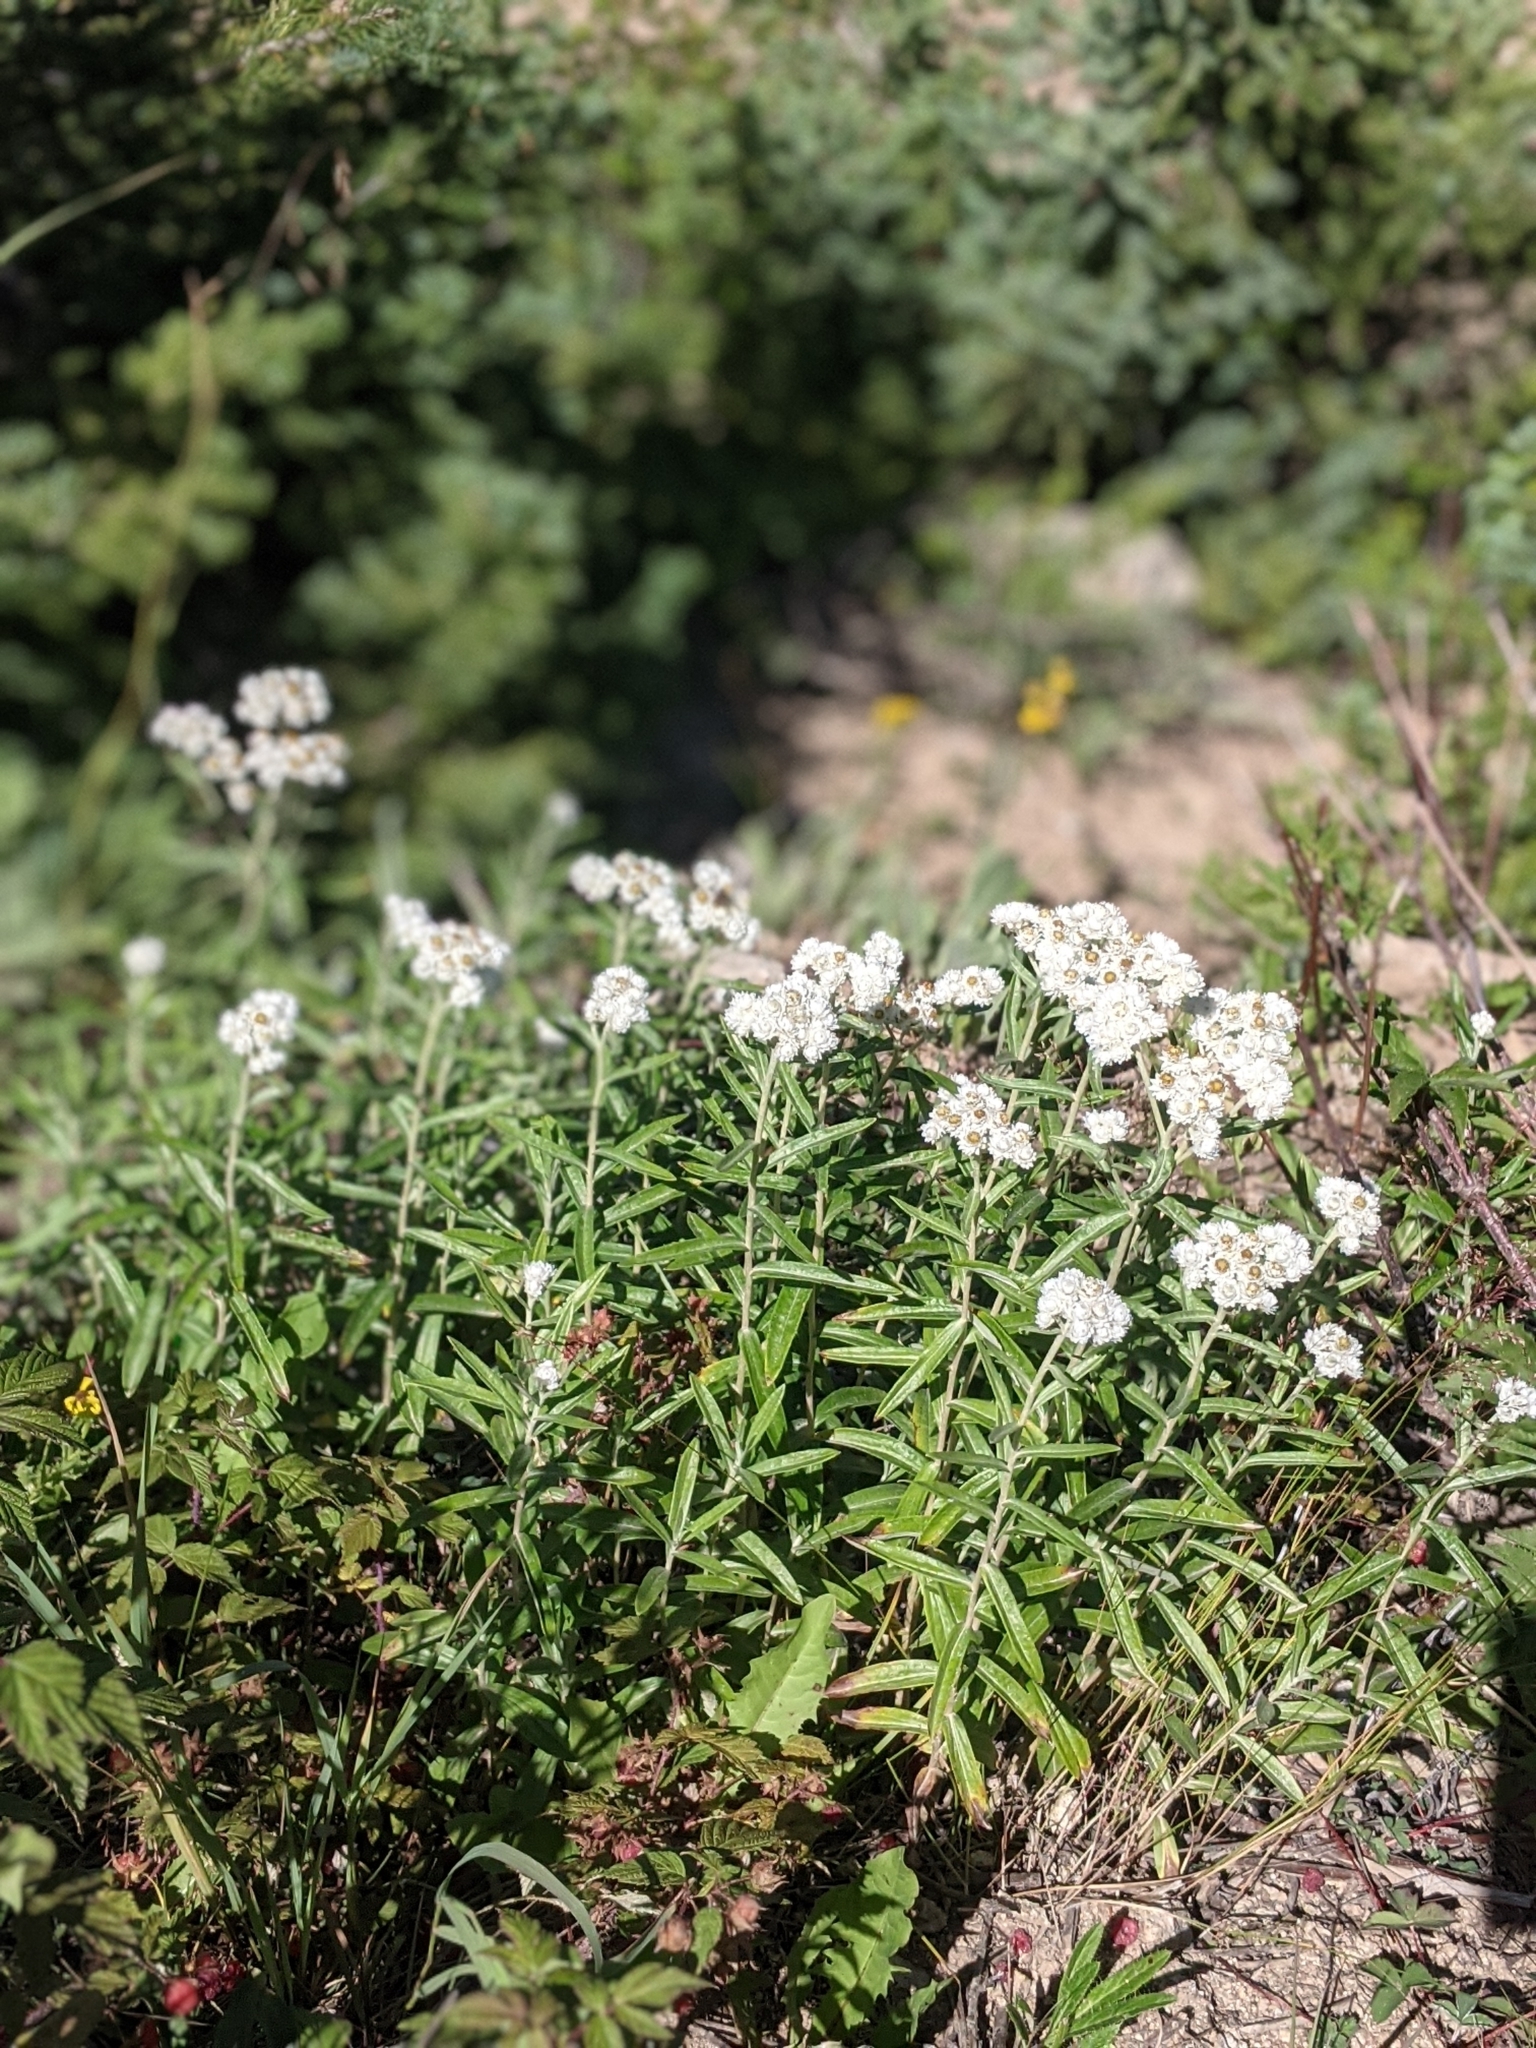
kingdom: Plantae
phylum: Tracheophyta
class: Magnoliopsida
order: Asterales
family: Asteraceae
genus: Anaphalis
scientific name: Anaphalis margaritacea
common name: Pearly everlasting
